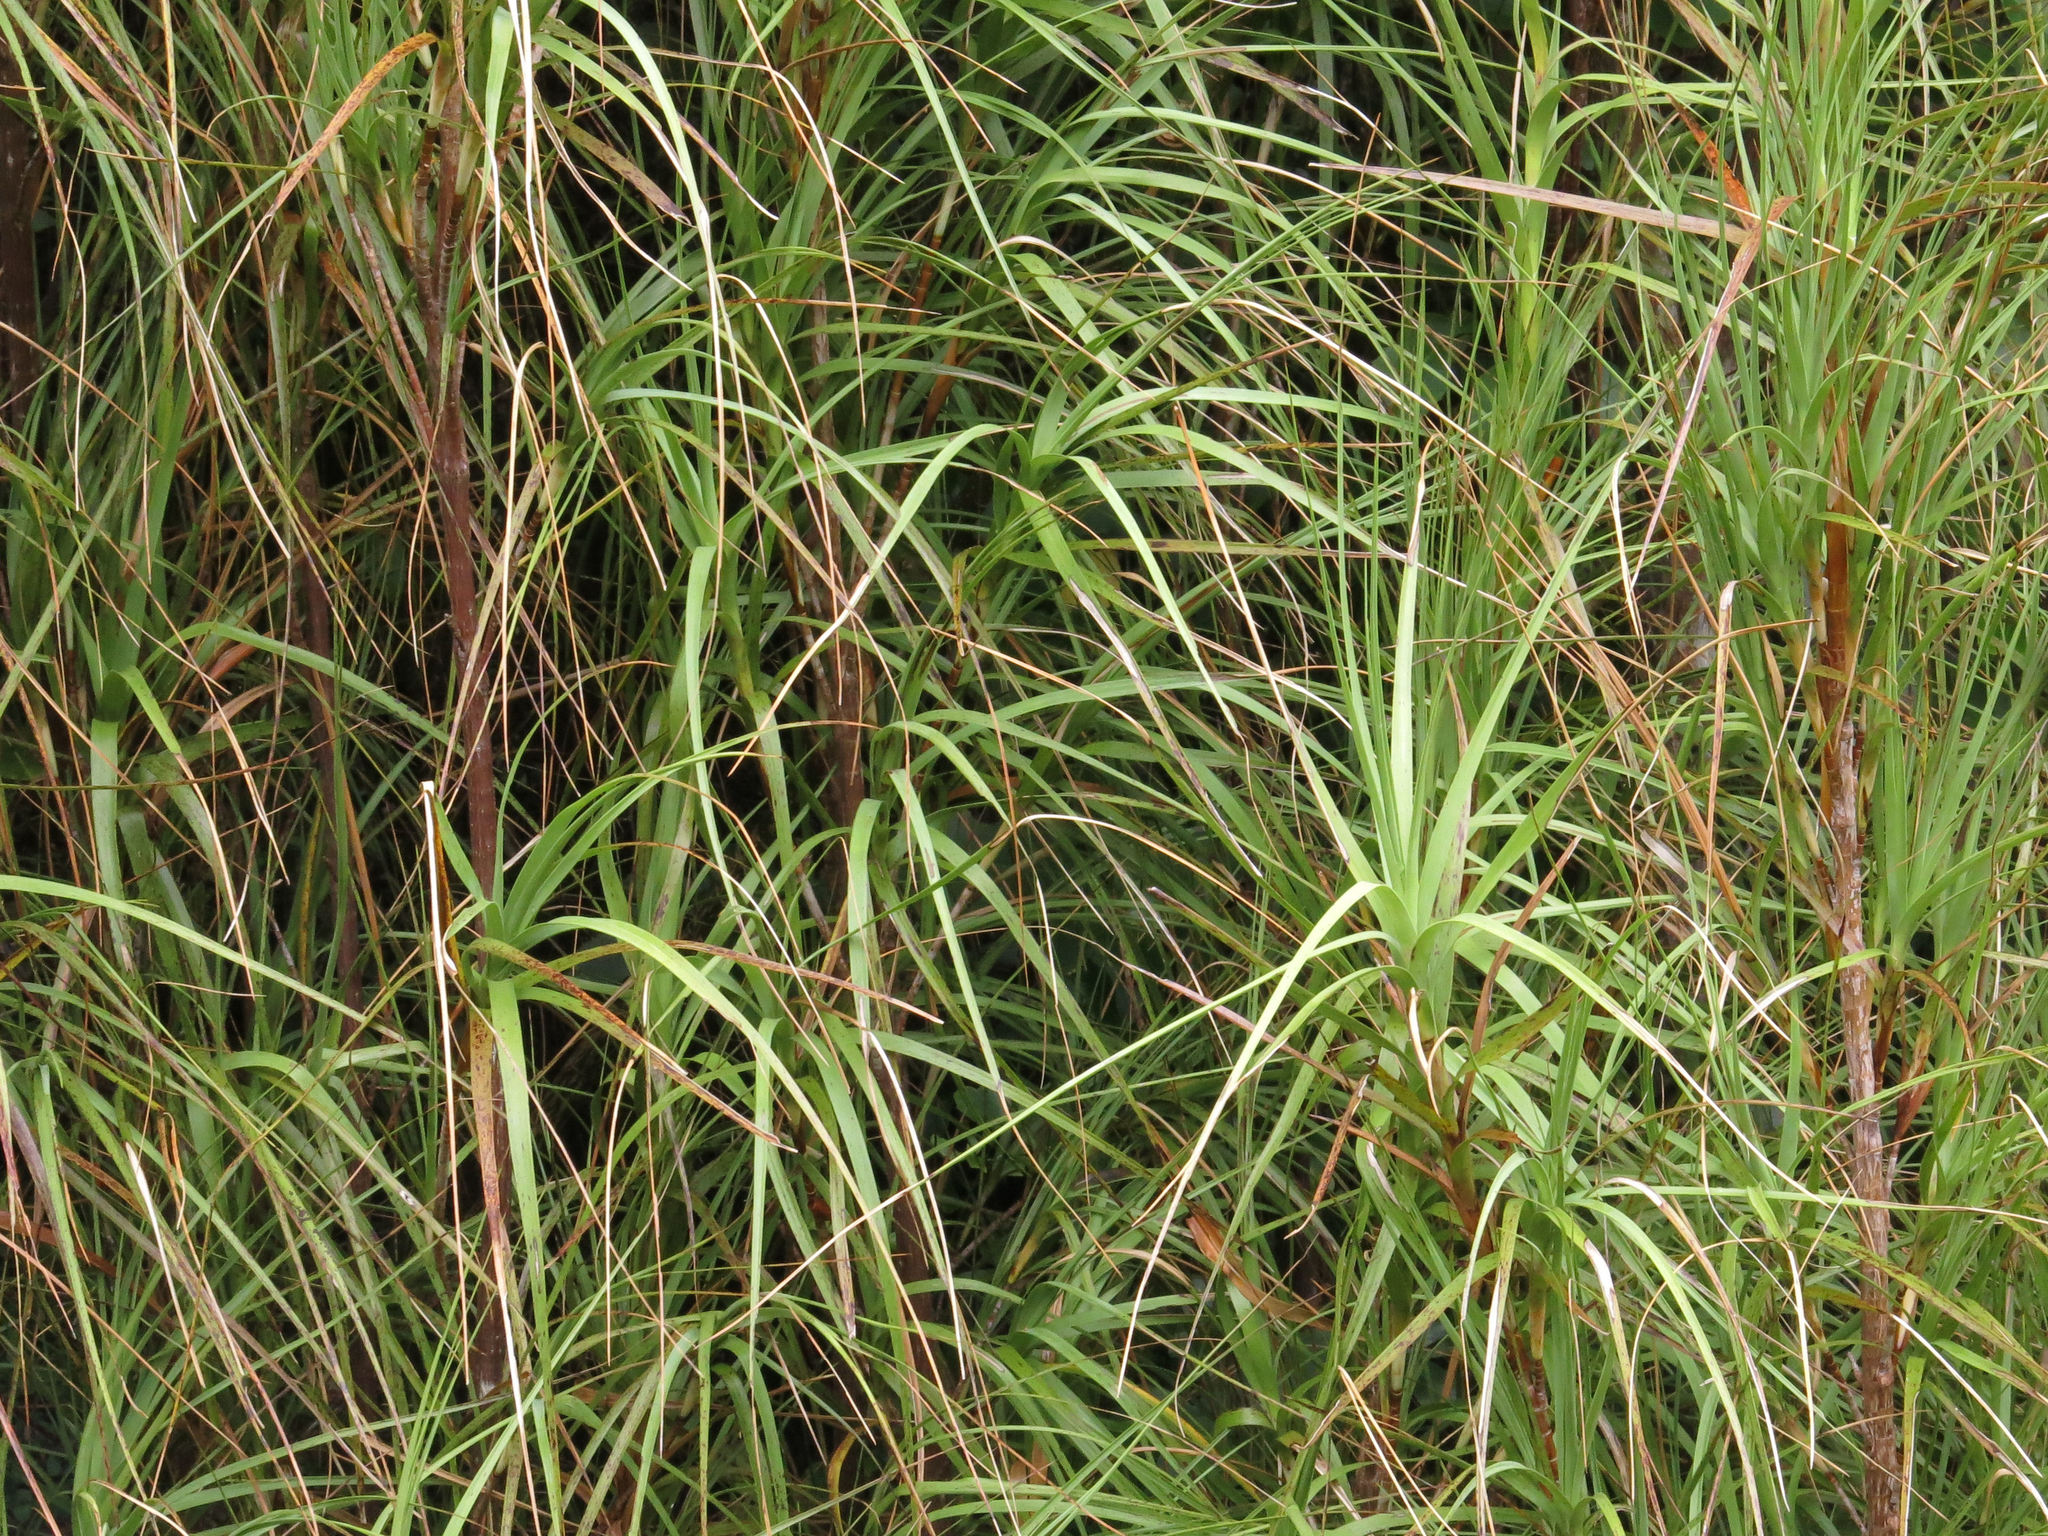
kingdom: Plantae
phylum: Tracheophyta
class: Magnoliopsida
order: Ericales
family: Ericaceae
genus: Dracophyllum
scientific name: Dracophyllum longifolium
